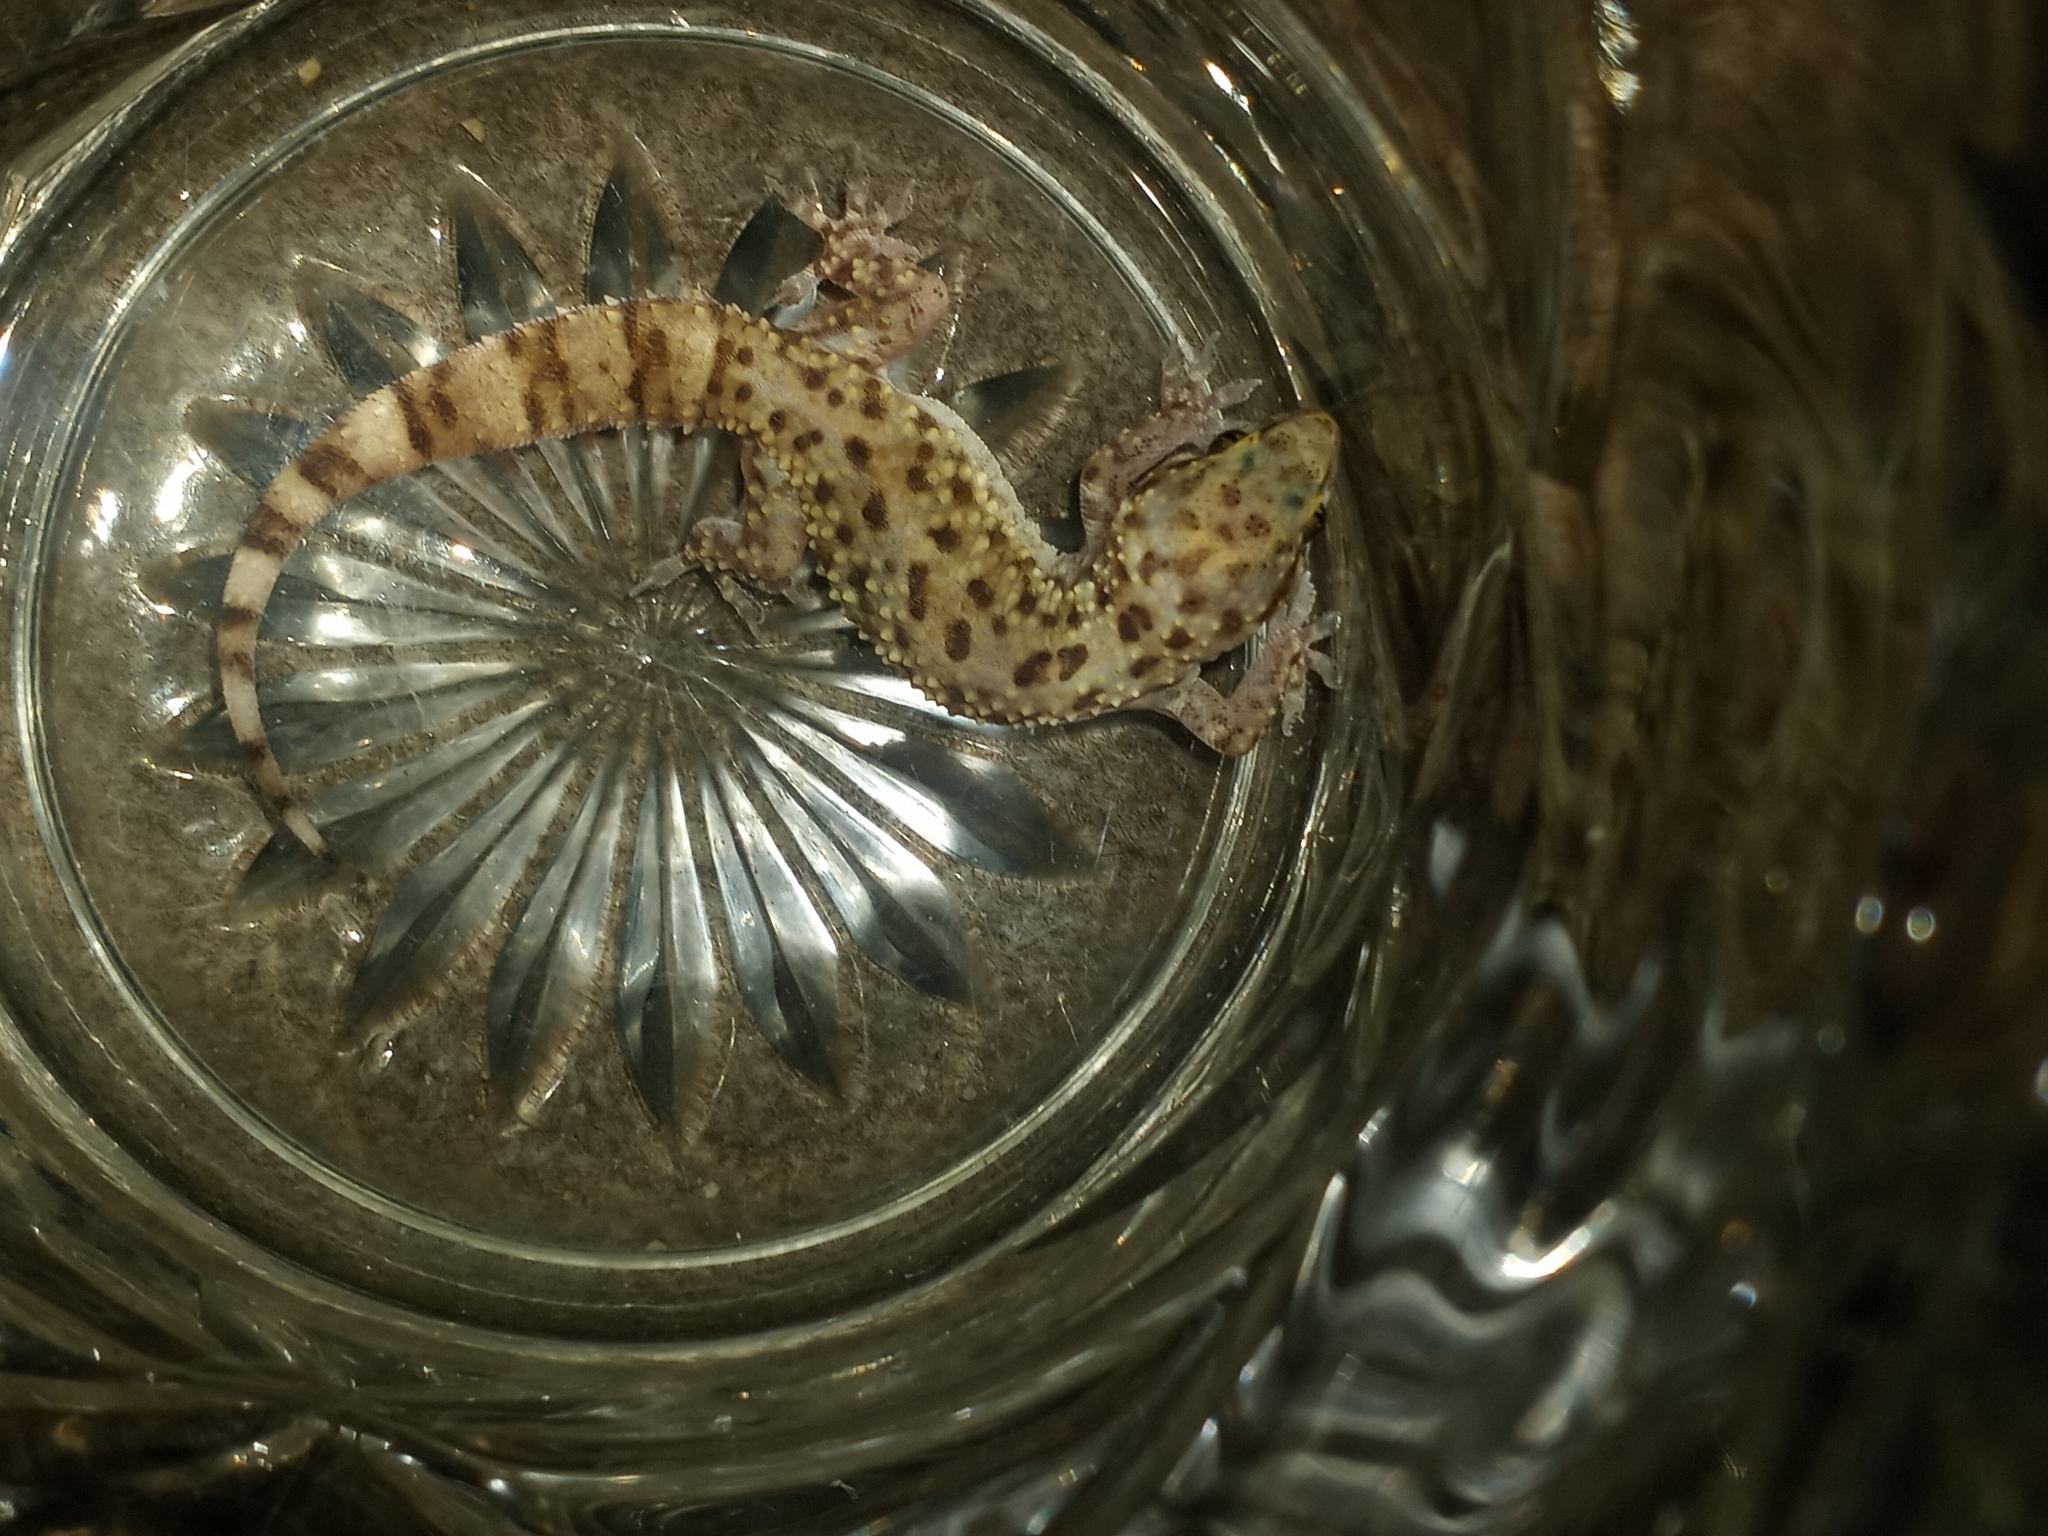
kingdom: Animalia
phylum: Chordata
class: Squamata
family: Gekkonidae
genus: Hemidactylus
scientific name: Hemidactylus turcicus
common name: Turkish gecko
